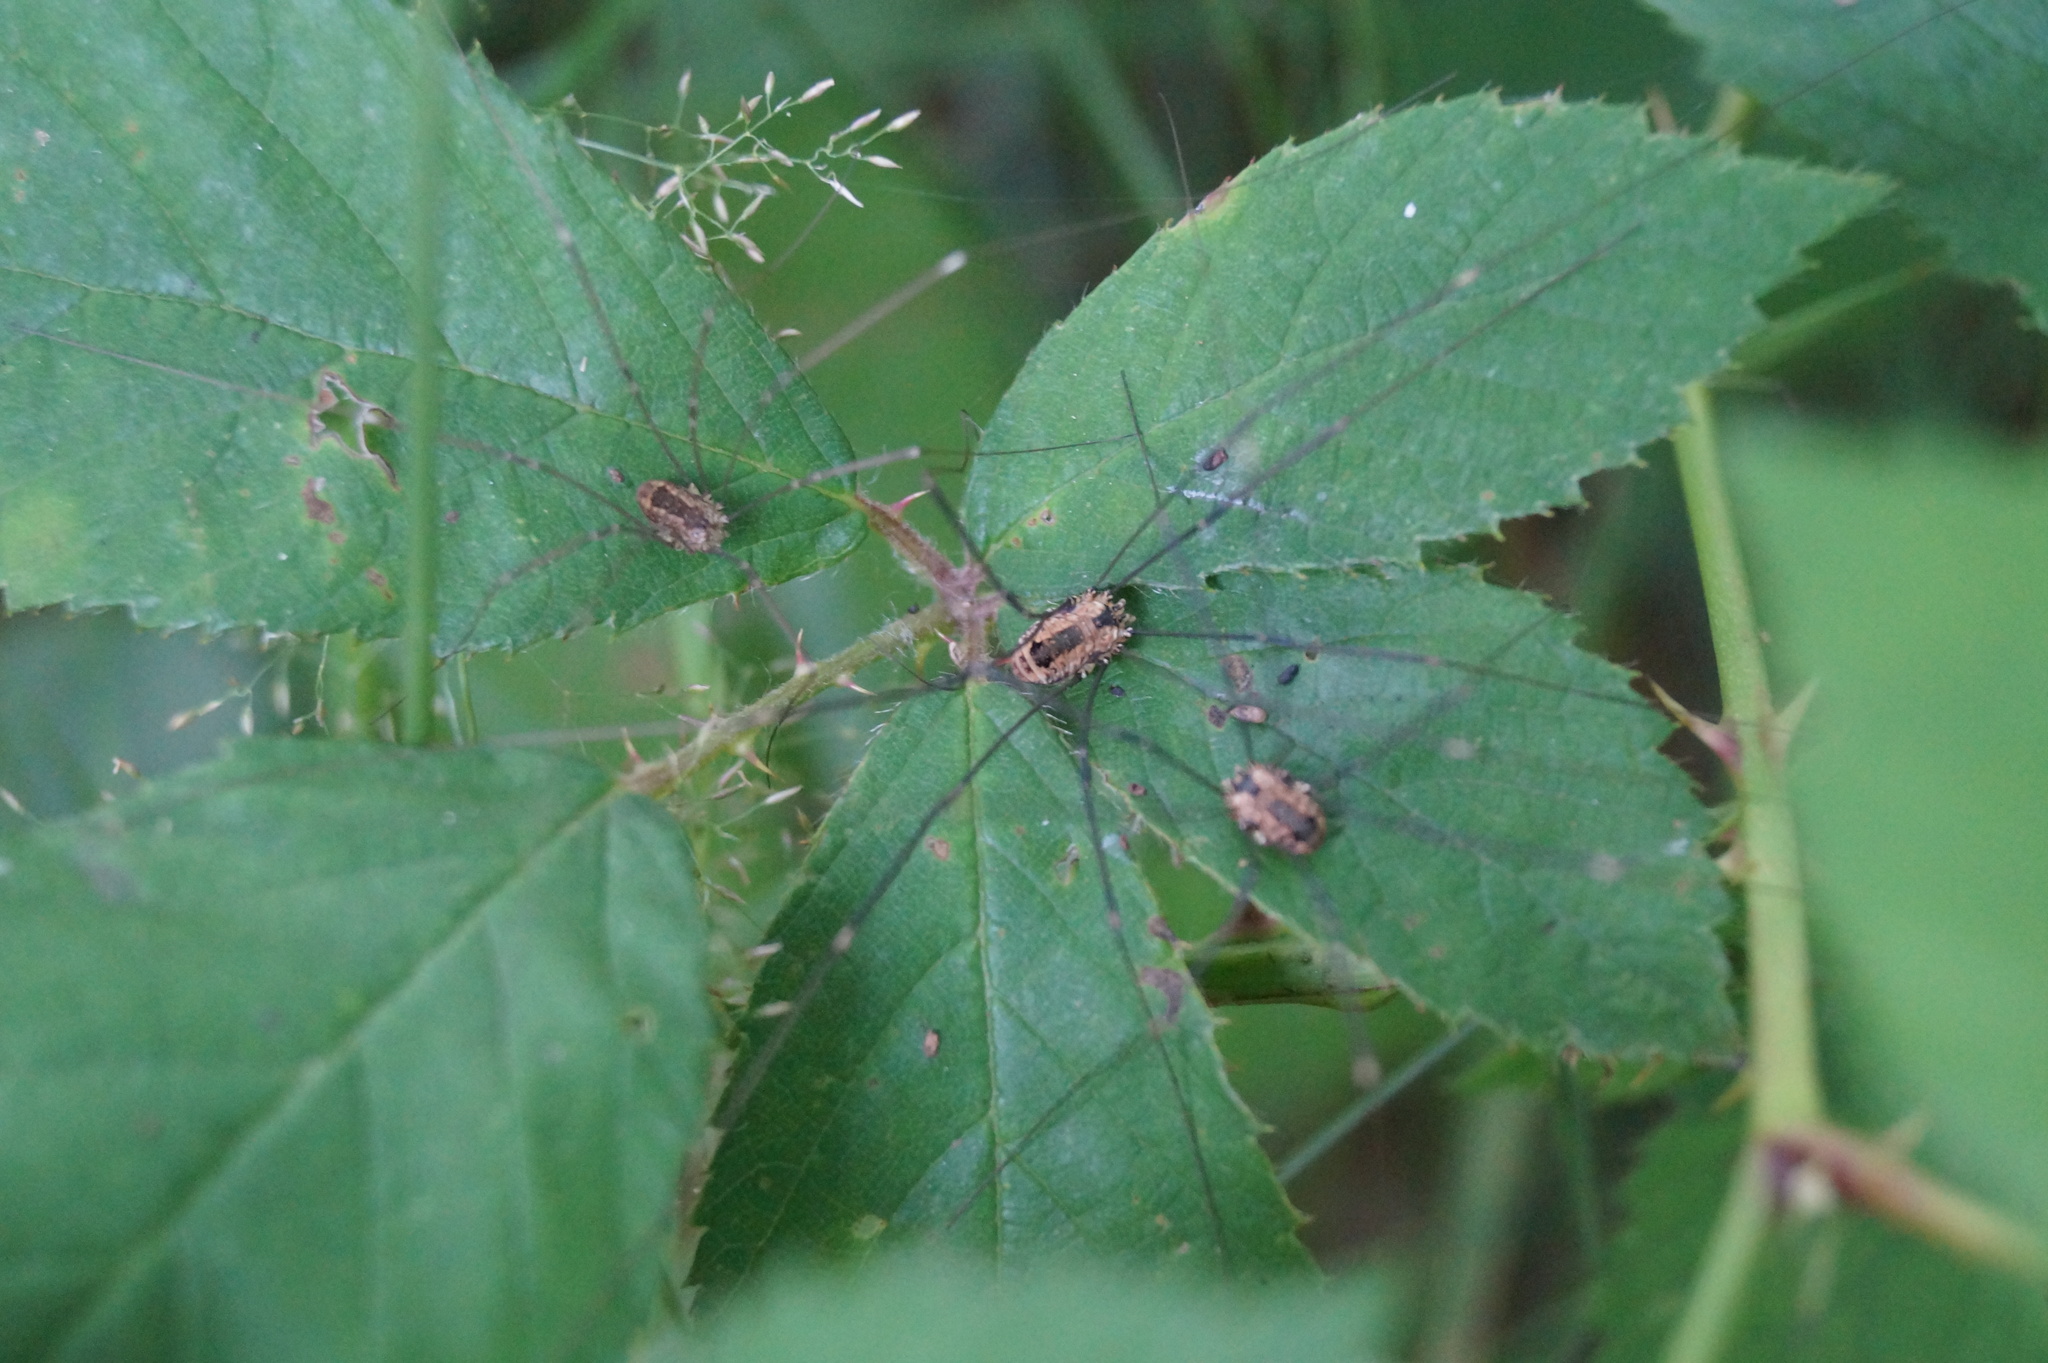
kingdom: Animalia
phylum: Arthropoda
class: Arachnida
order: Opiliones
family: Sclerosomatidae
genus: Leiobunum
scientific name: Leiobunum rotundum
